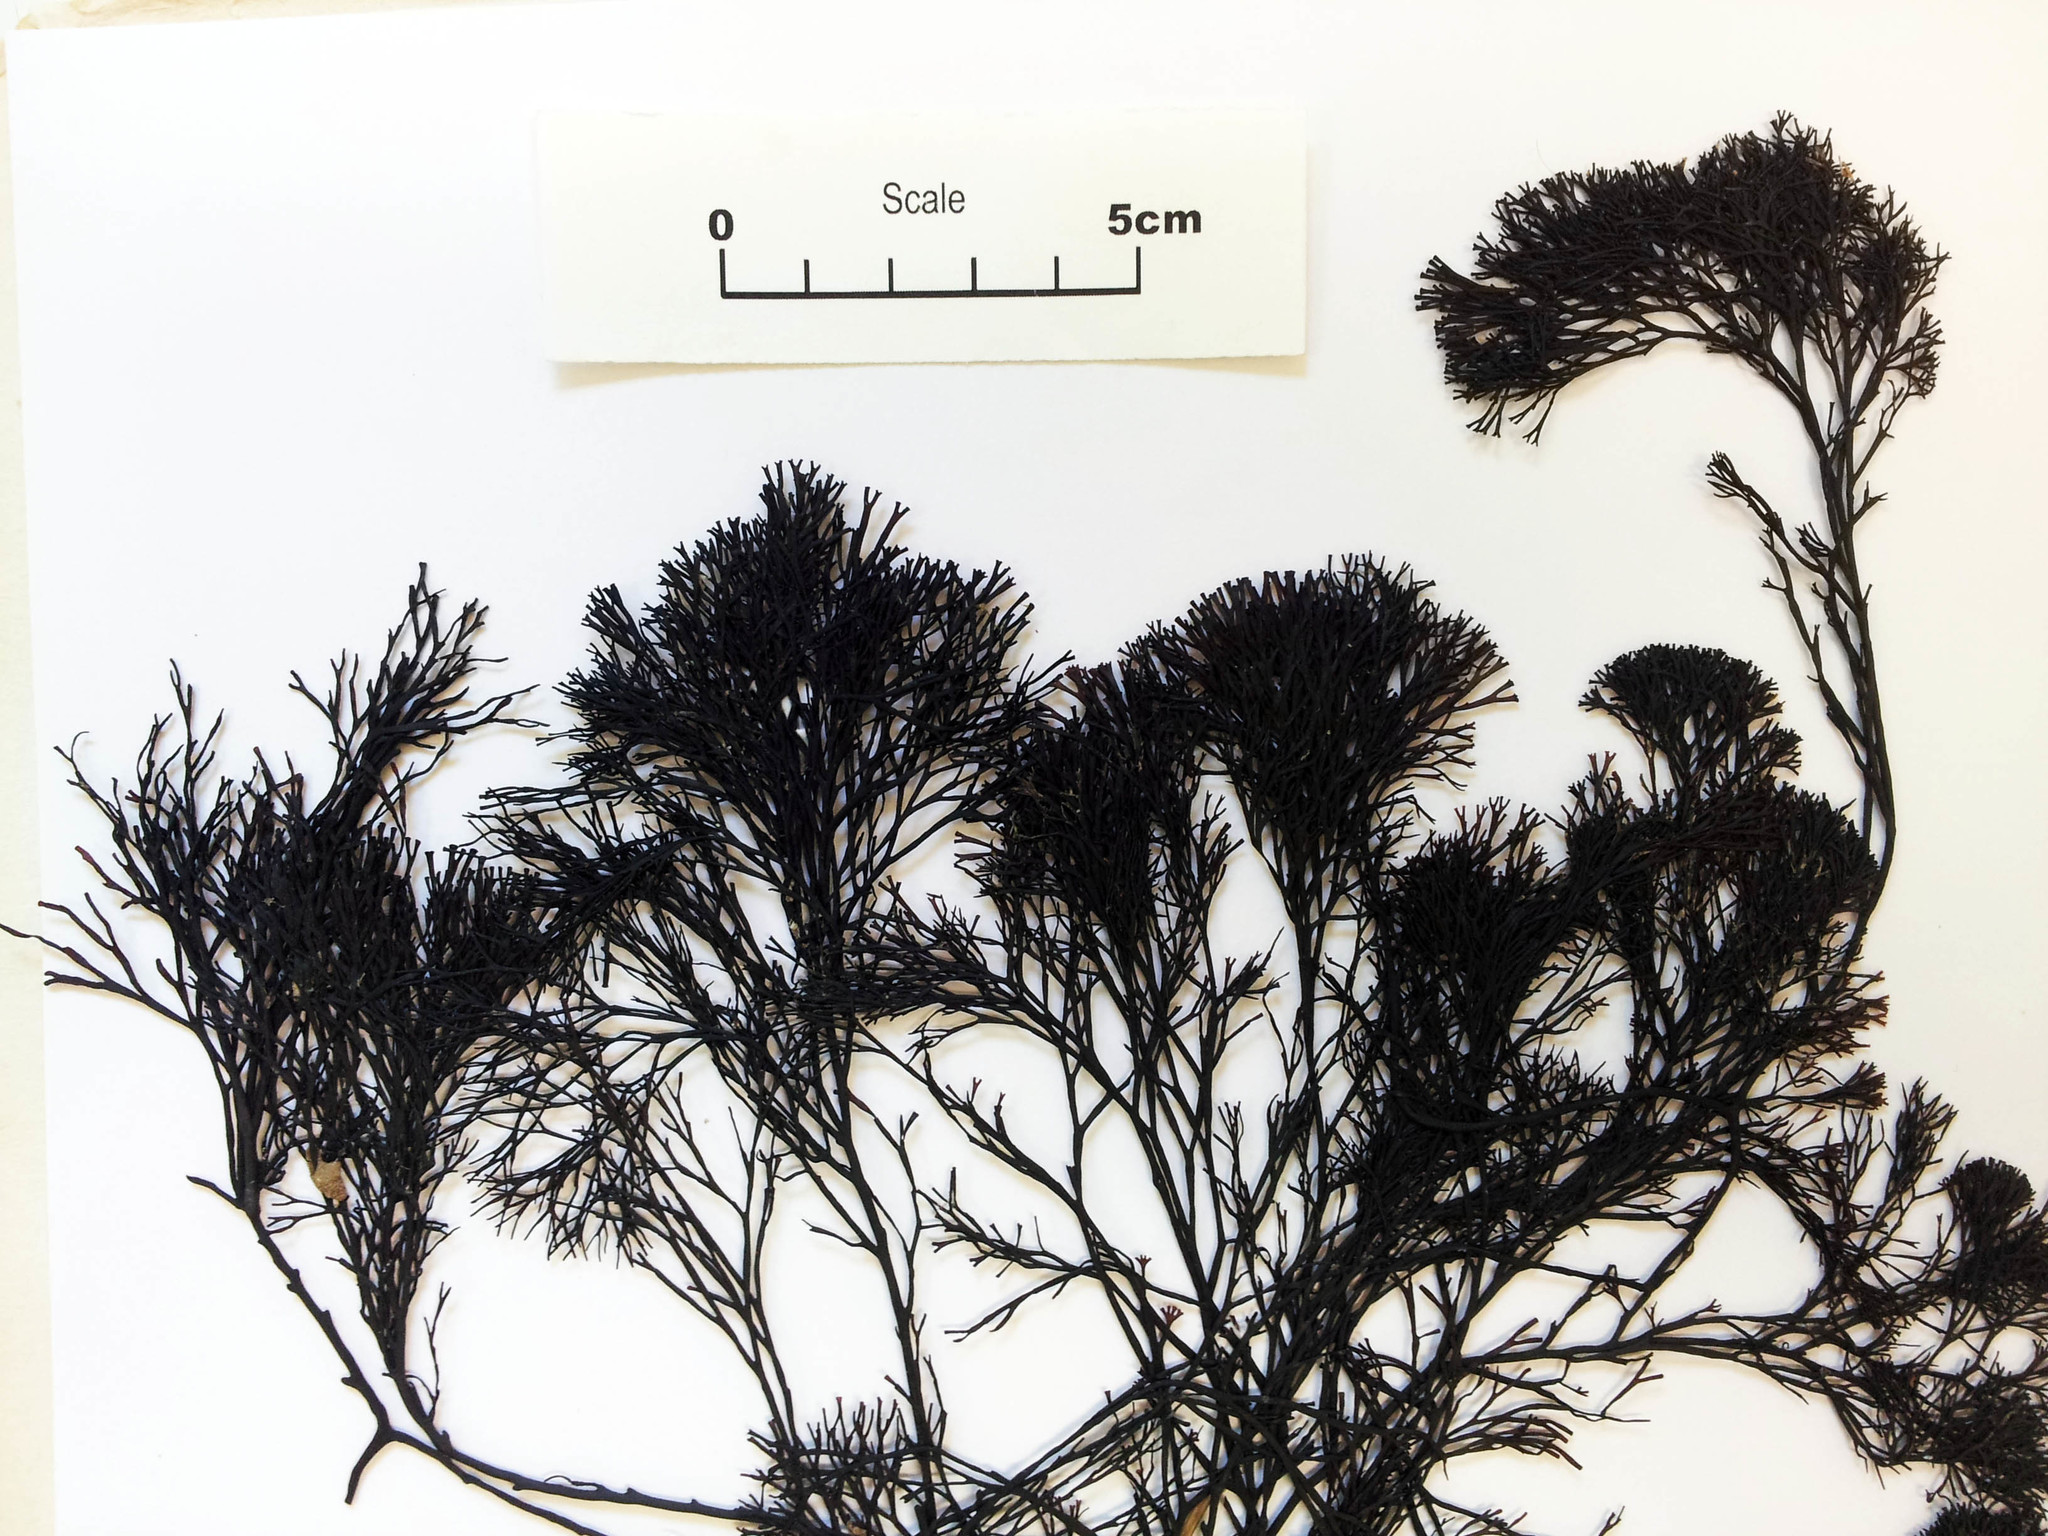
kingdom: Plantae
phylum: Rhodophyta
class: Florideophyceae
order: Gracilariales
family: Gracilariaceae
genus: Melanthalia
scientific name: Melanthalia abscissa
